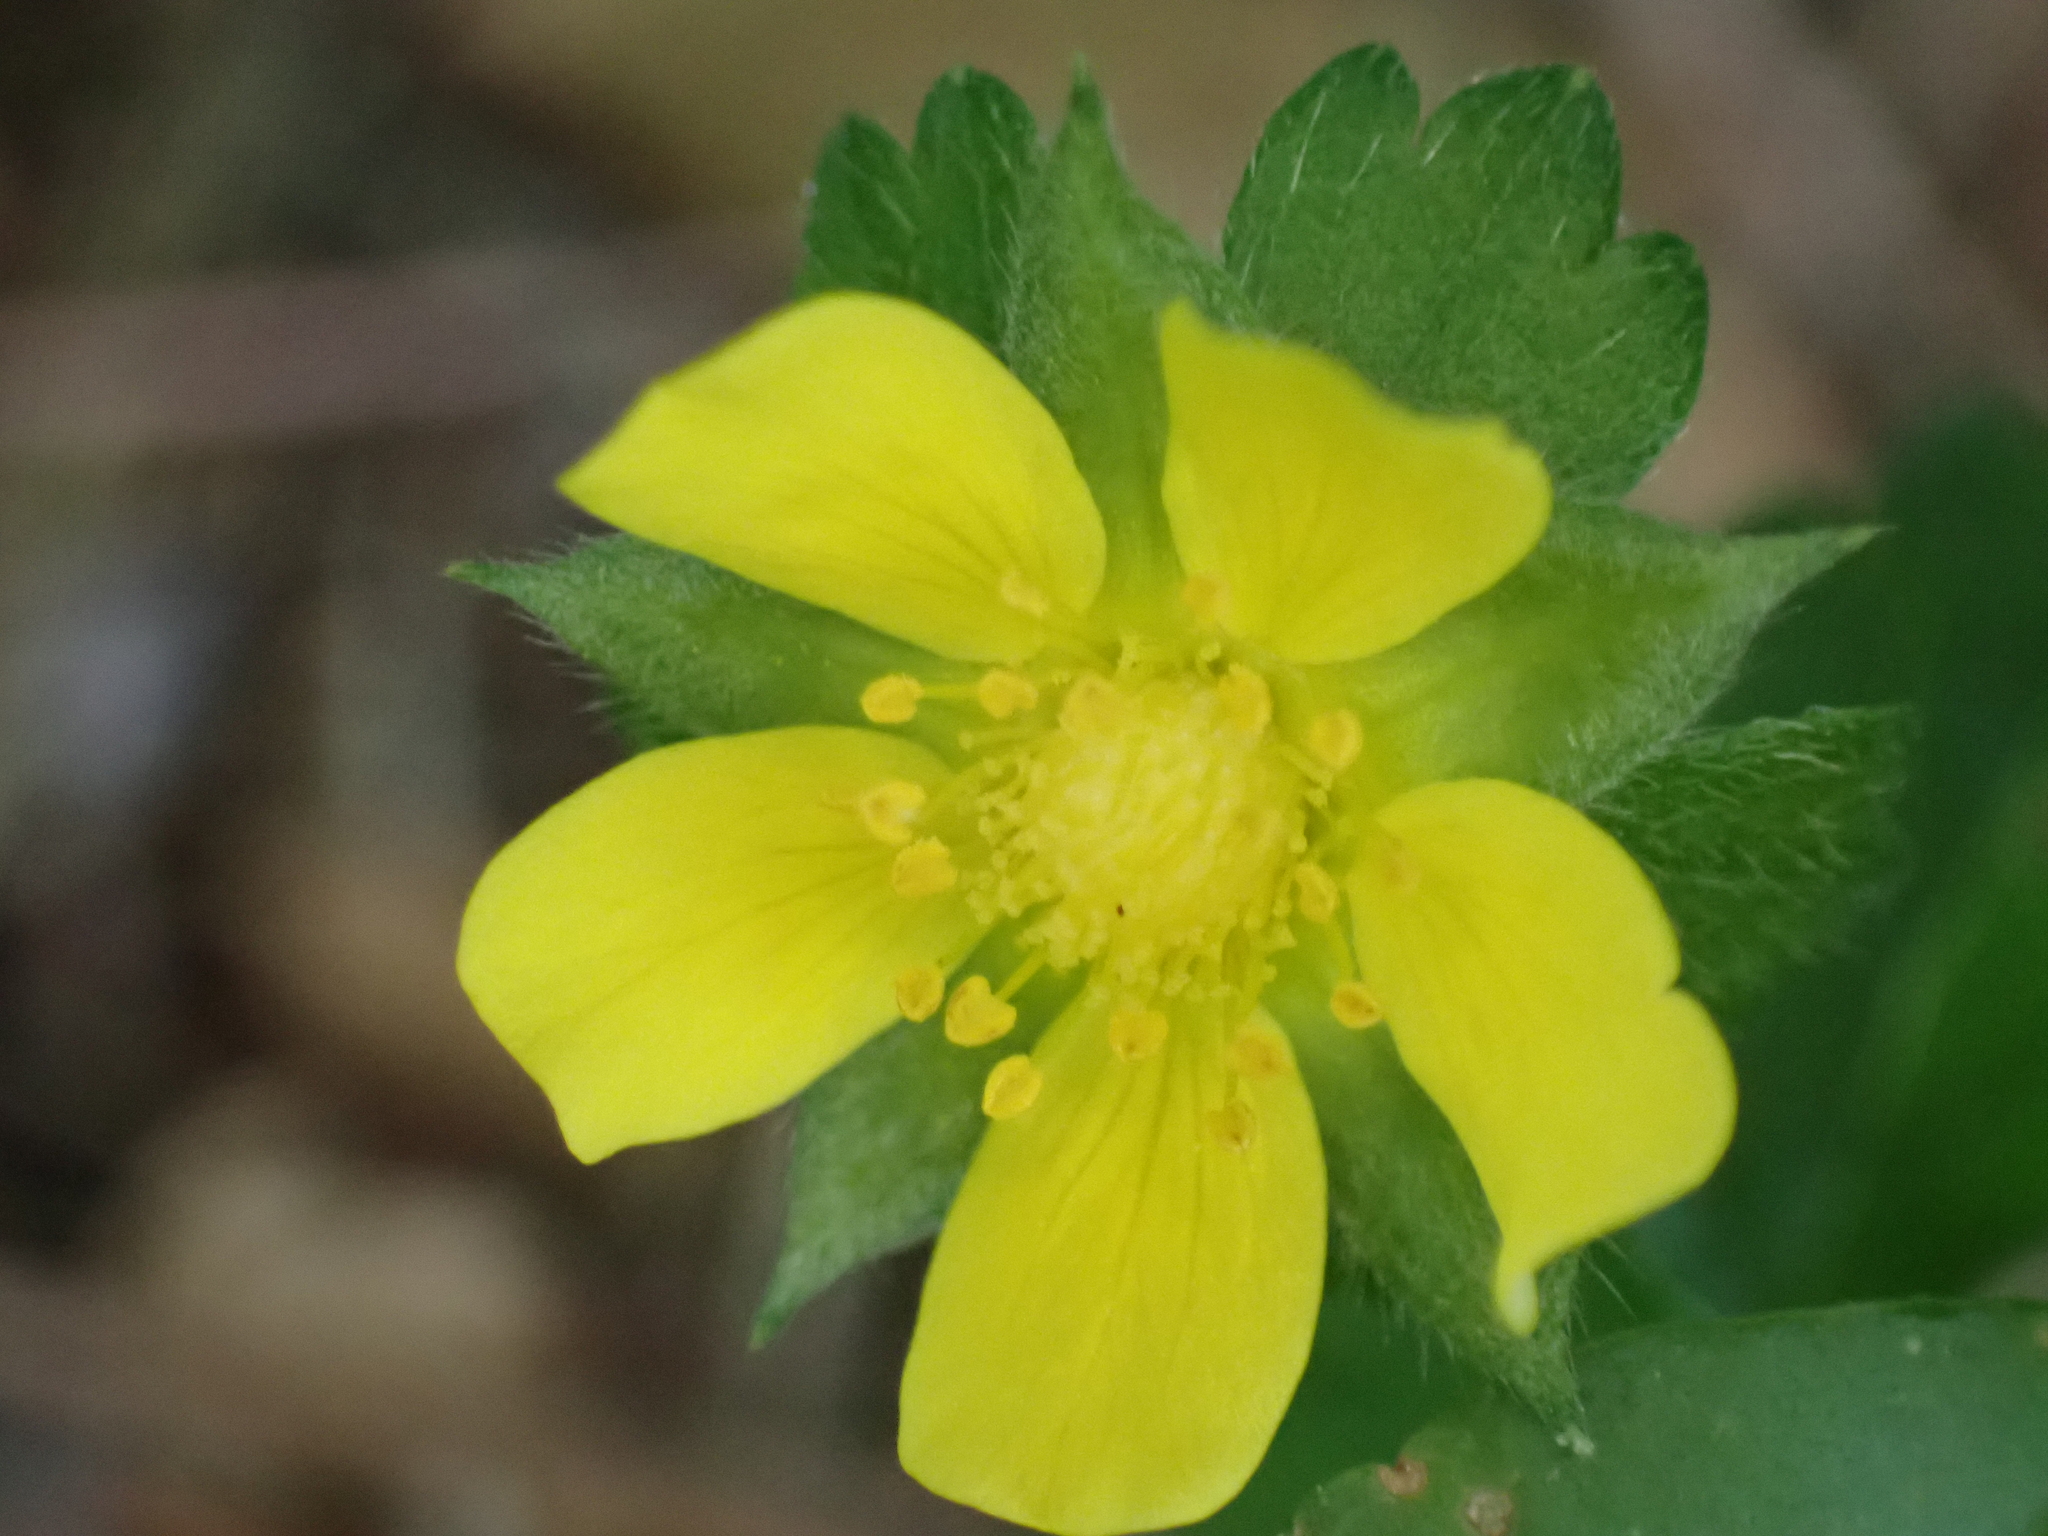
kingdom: Plantae
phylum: Tracheophyta
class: Magnoliopsida
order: Rosales
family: Rosaceae
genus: Potentilla
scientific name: Potentilla indica
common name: Yellow-flowered strawberry
